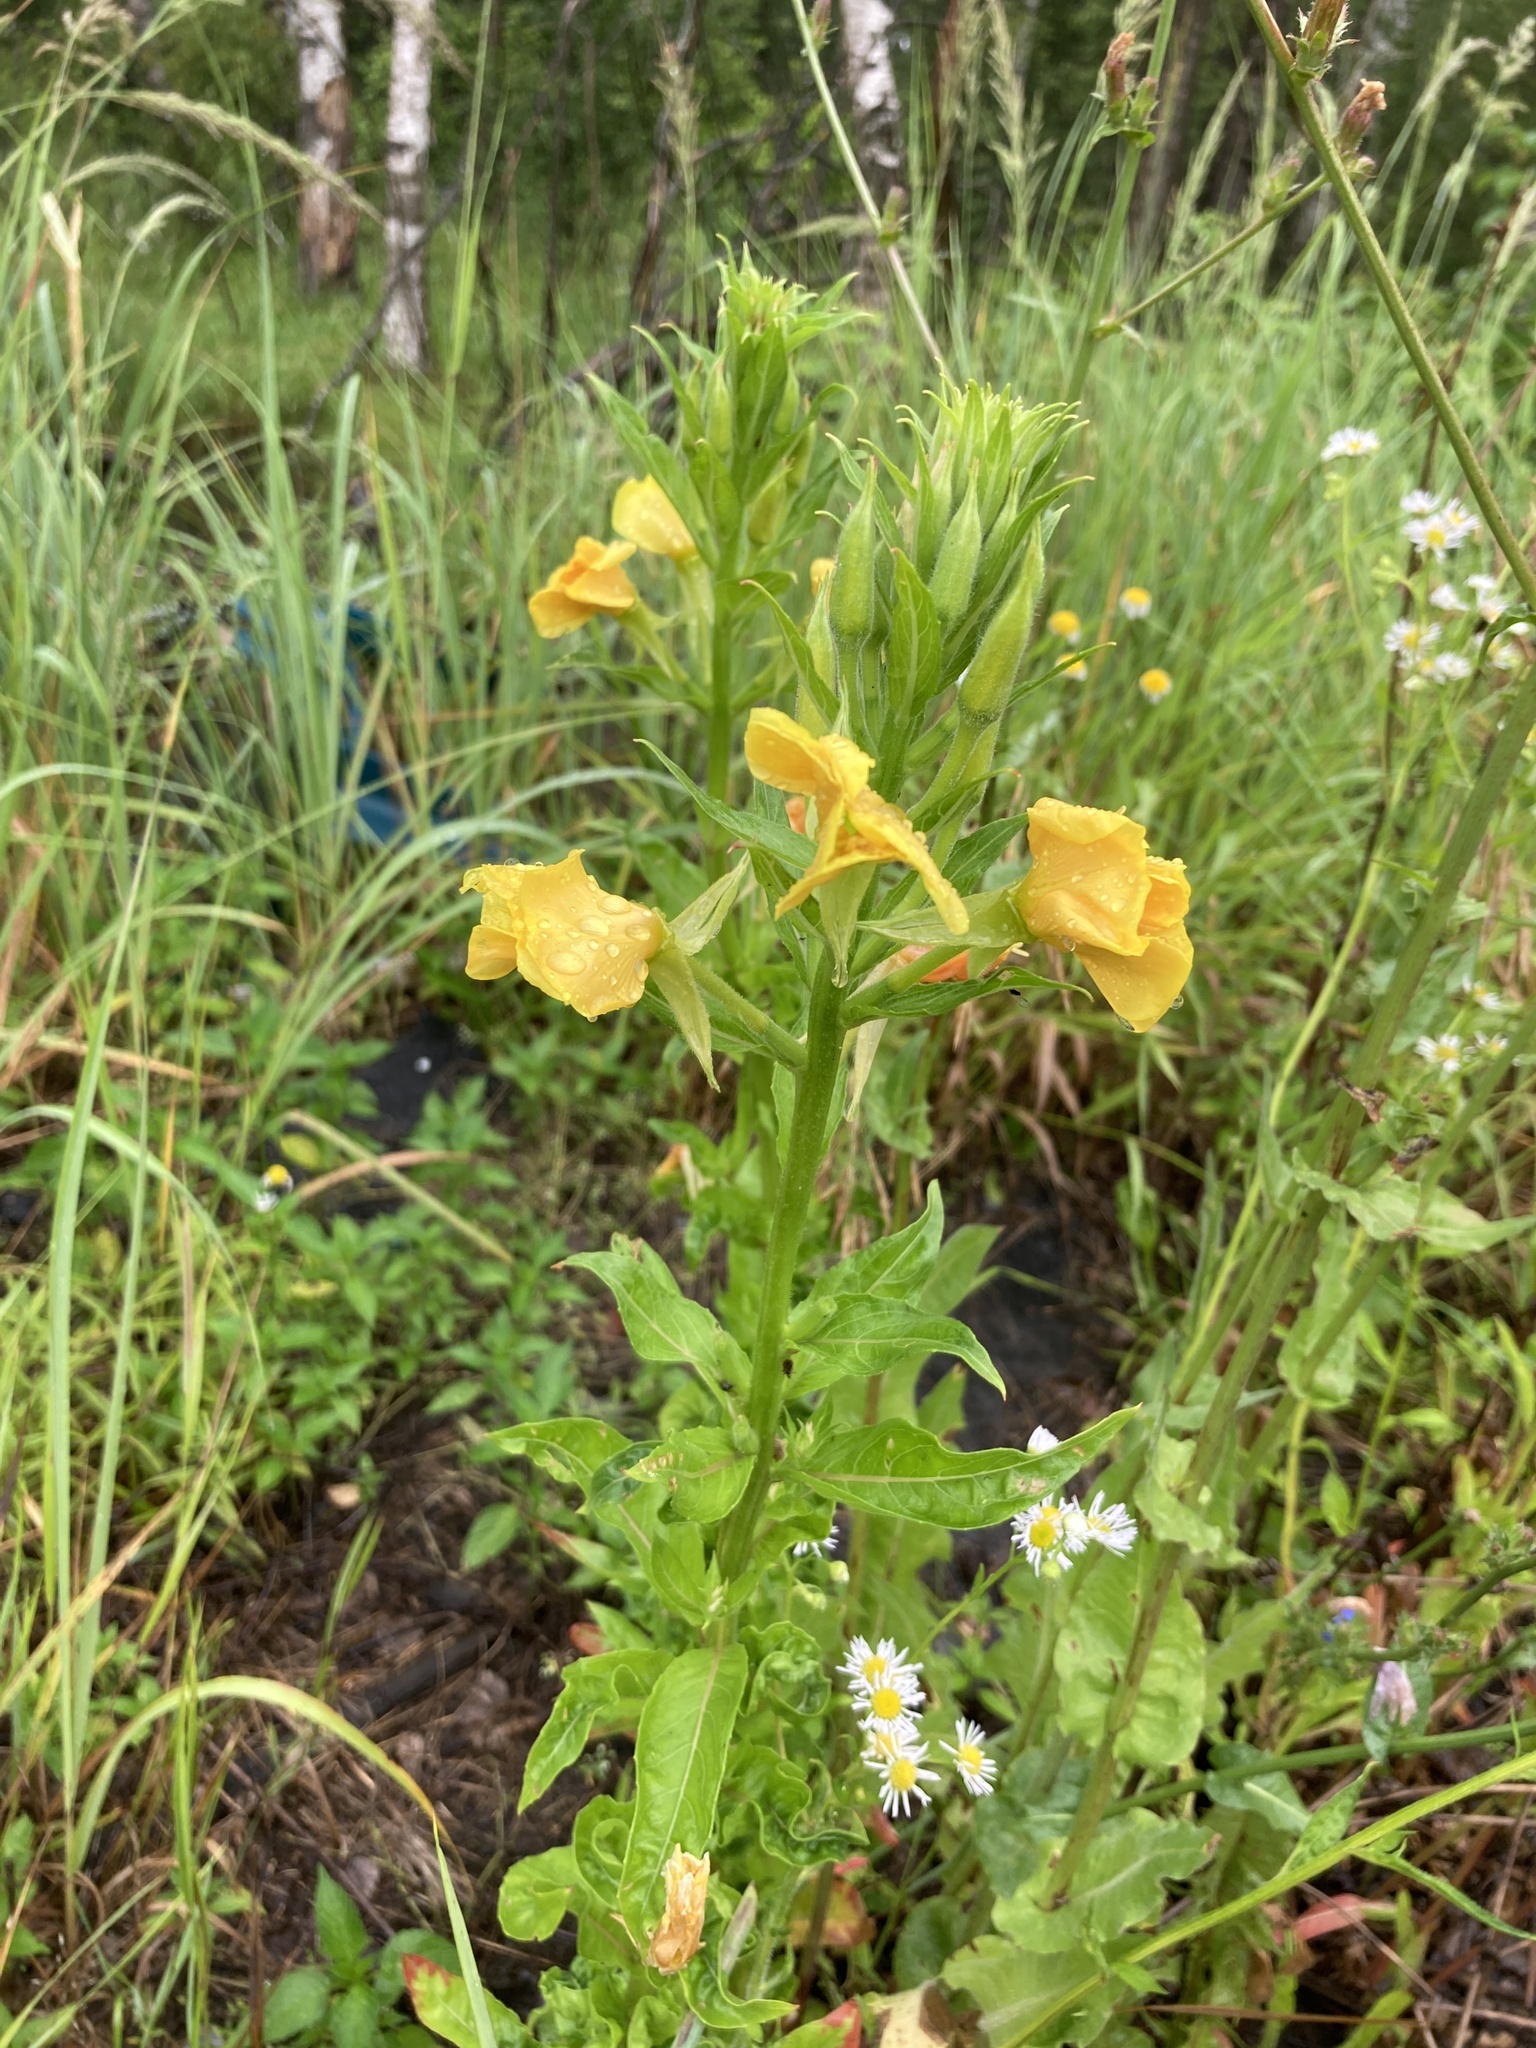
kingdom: Plantae
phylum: Tracheophyta
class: Magnoliopsida
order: Myrtales
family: Onagraceae
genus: Oenothera
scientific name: Oenothera biennis
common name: Common evening-primrose
